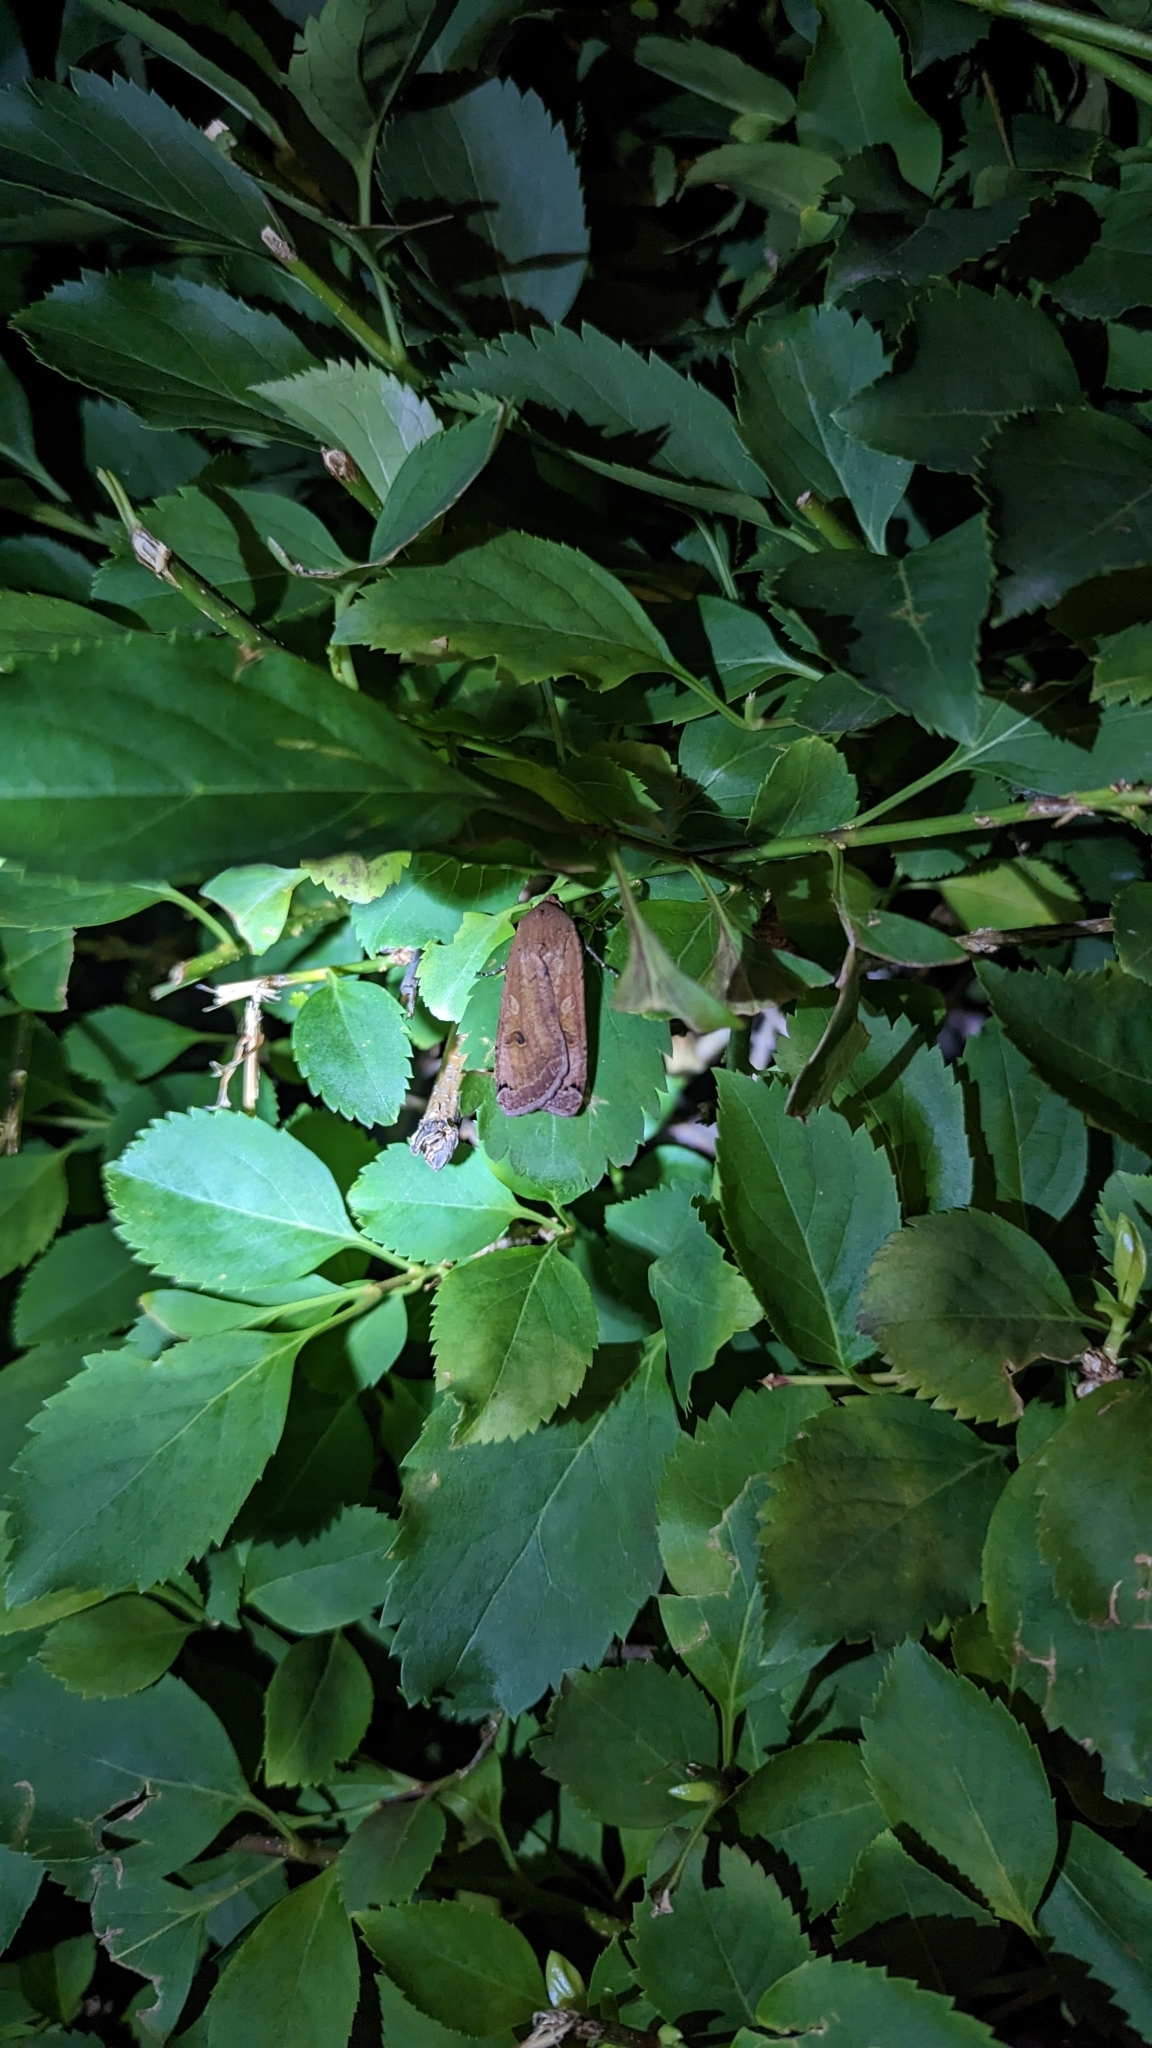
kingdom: Animalia
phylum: Arthropoda
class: Insecta
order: Lepidoptera
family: Noctuidae
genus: Noctua
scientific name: Noctua pronuba
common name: Large yellow underwing
